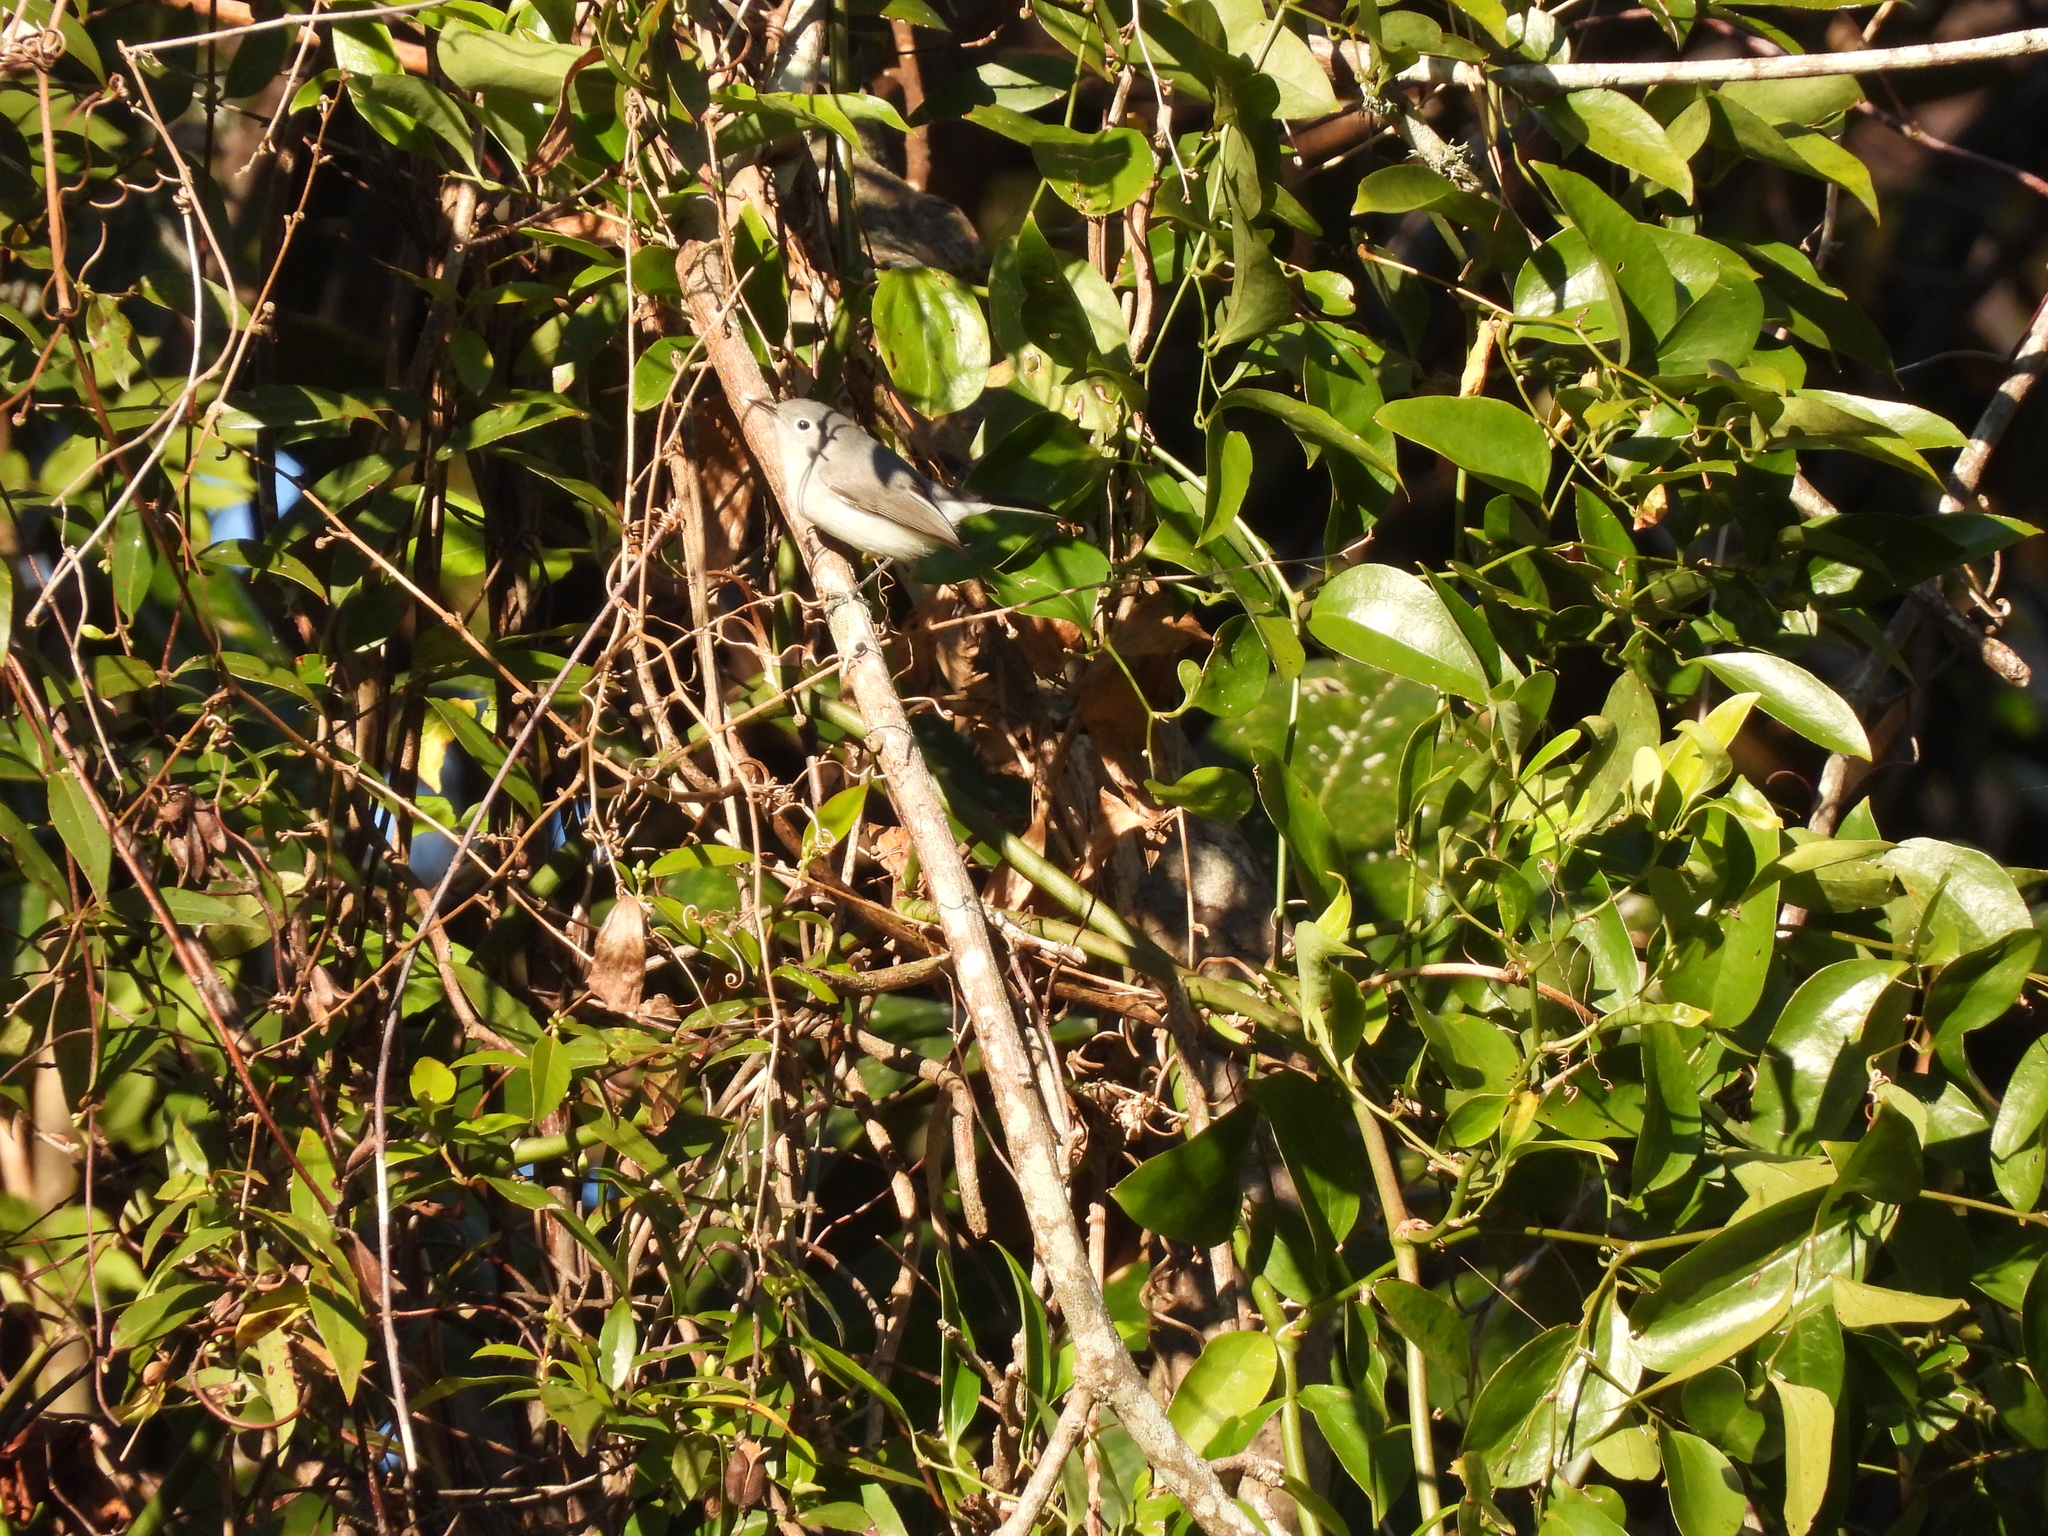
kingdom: Animalia
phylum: Chordata
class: Aves
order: Passeriformes
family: Polioptilidae
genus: Polioptila
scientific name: Polioptila caerulea
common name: Blue-gray gnatcatcher
